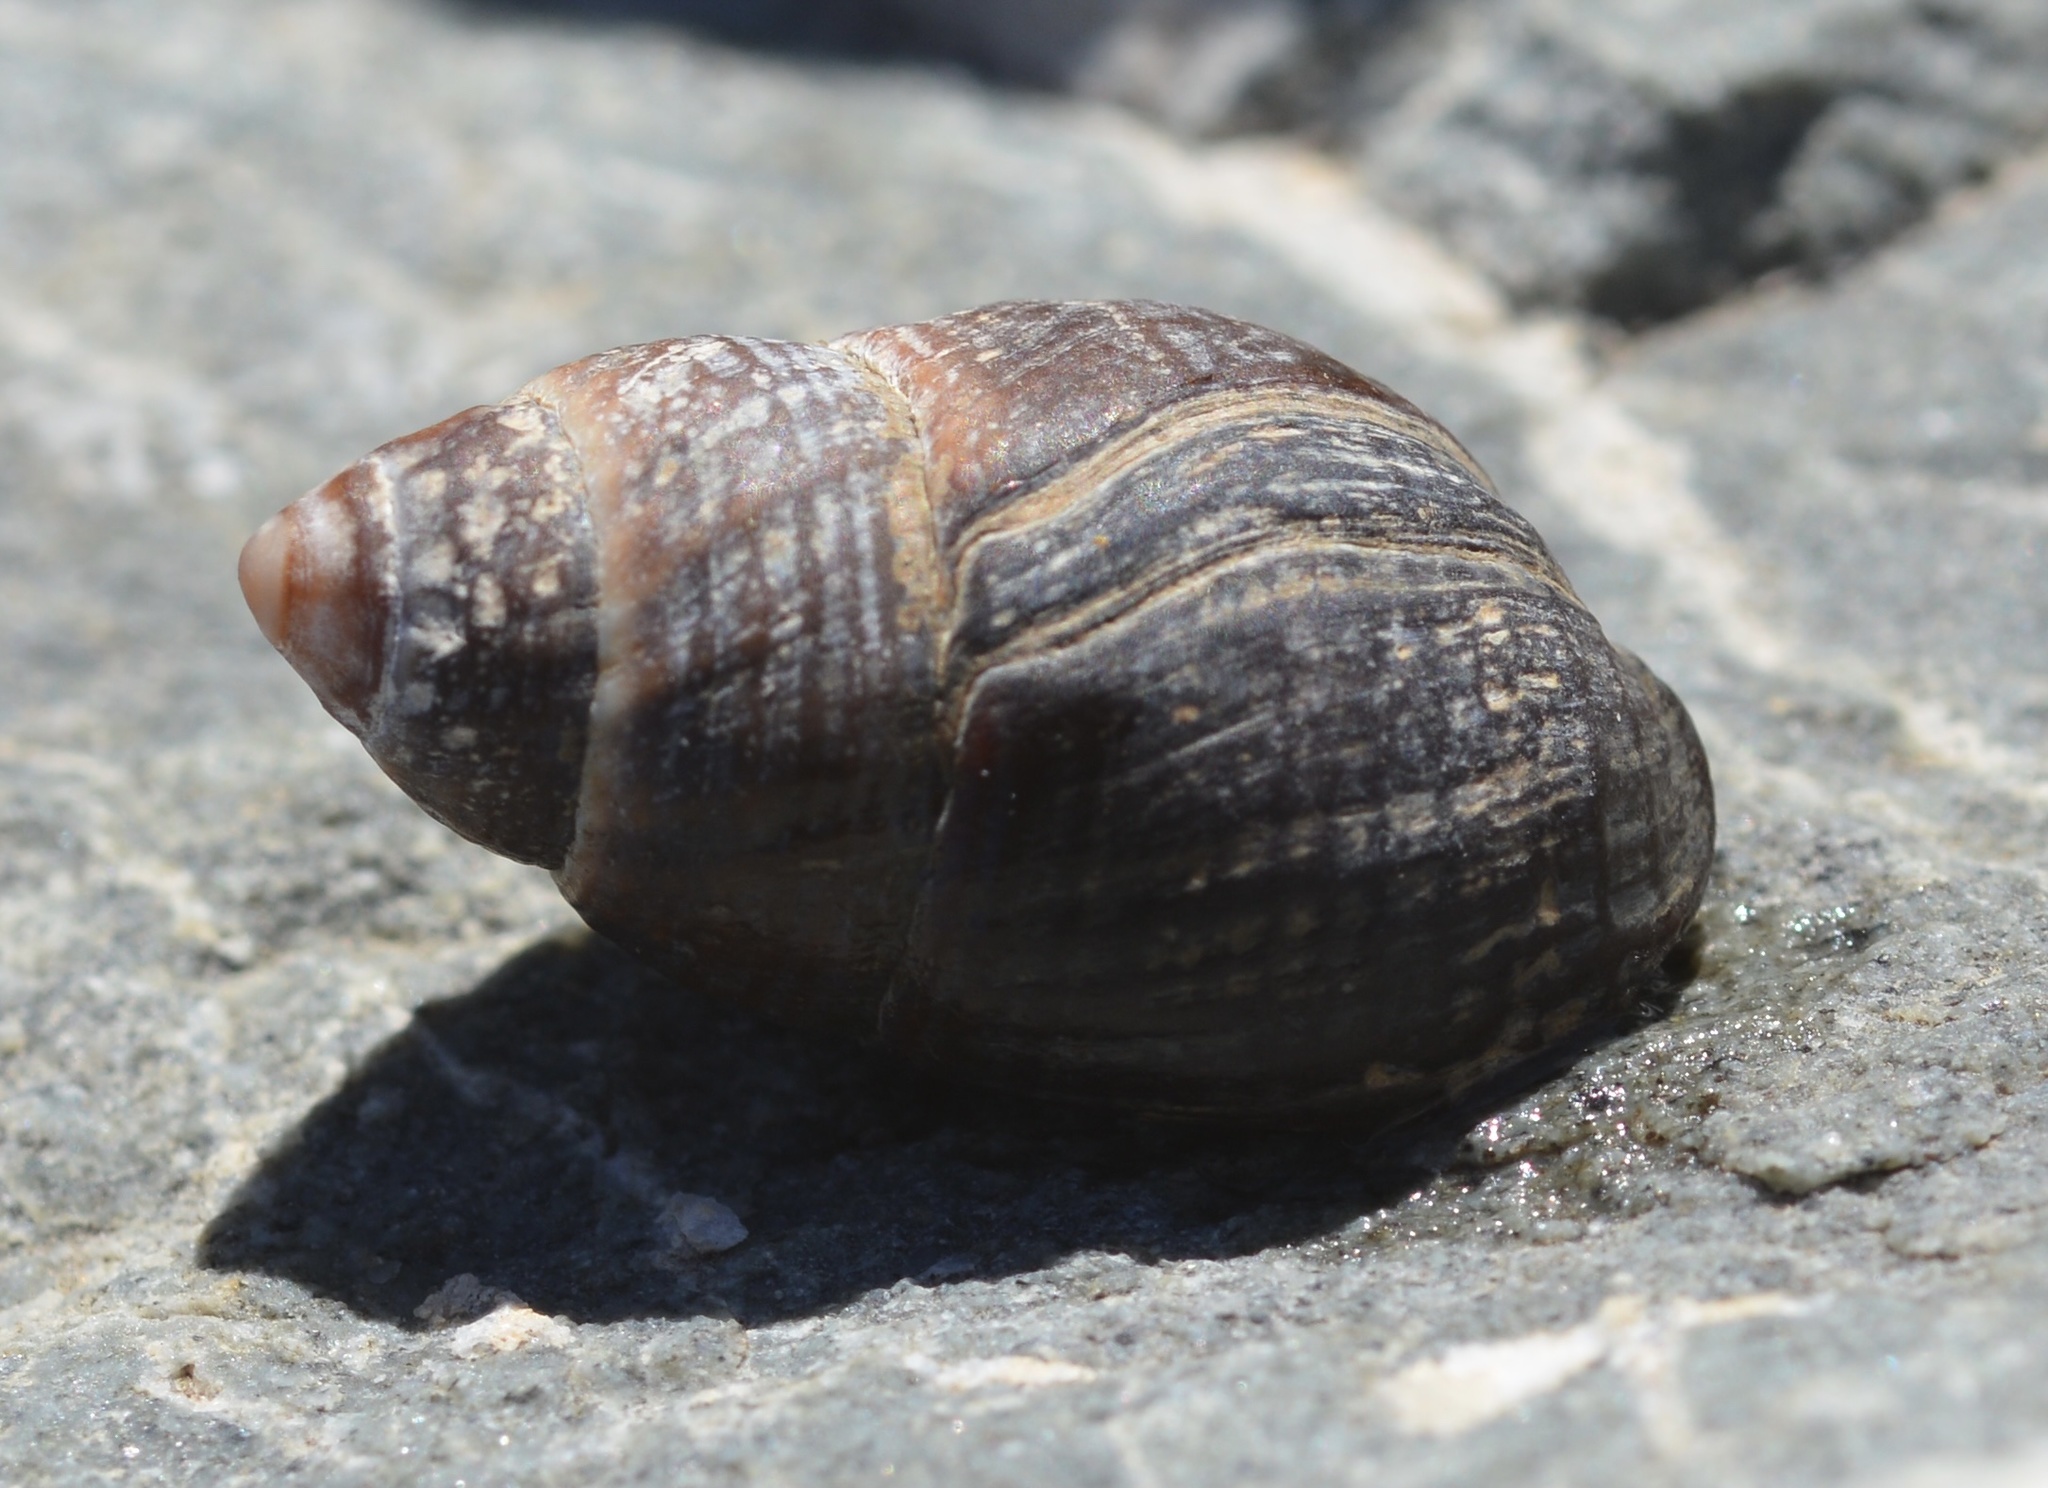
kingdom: Animalia
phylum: Mollusca
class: Gastropoda
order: Neogastropoda
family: Nassariidae
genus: Ilyanassa
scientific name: Ilyanassa obsoleta
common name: Eastern mudsnail
